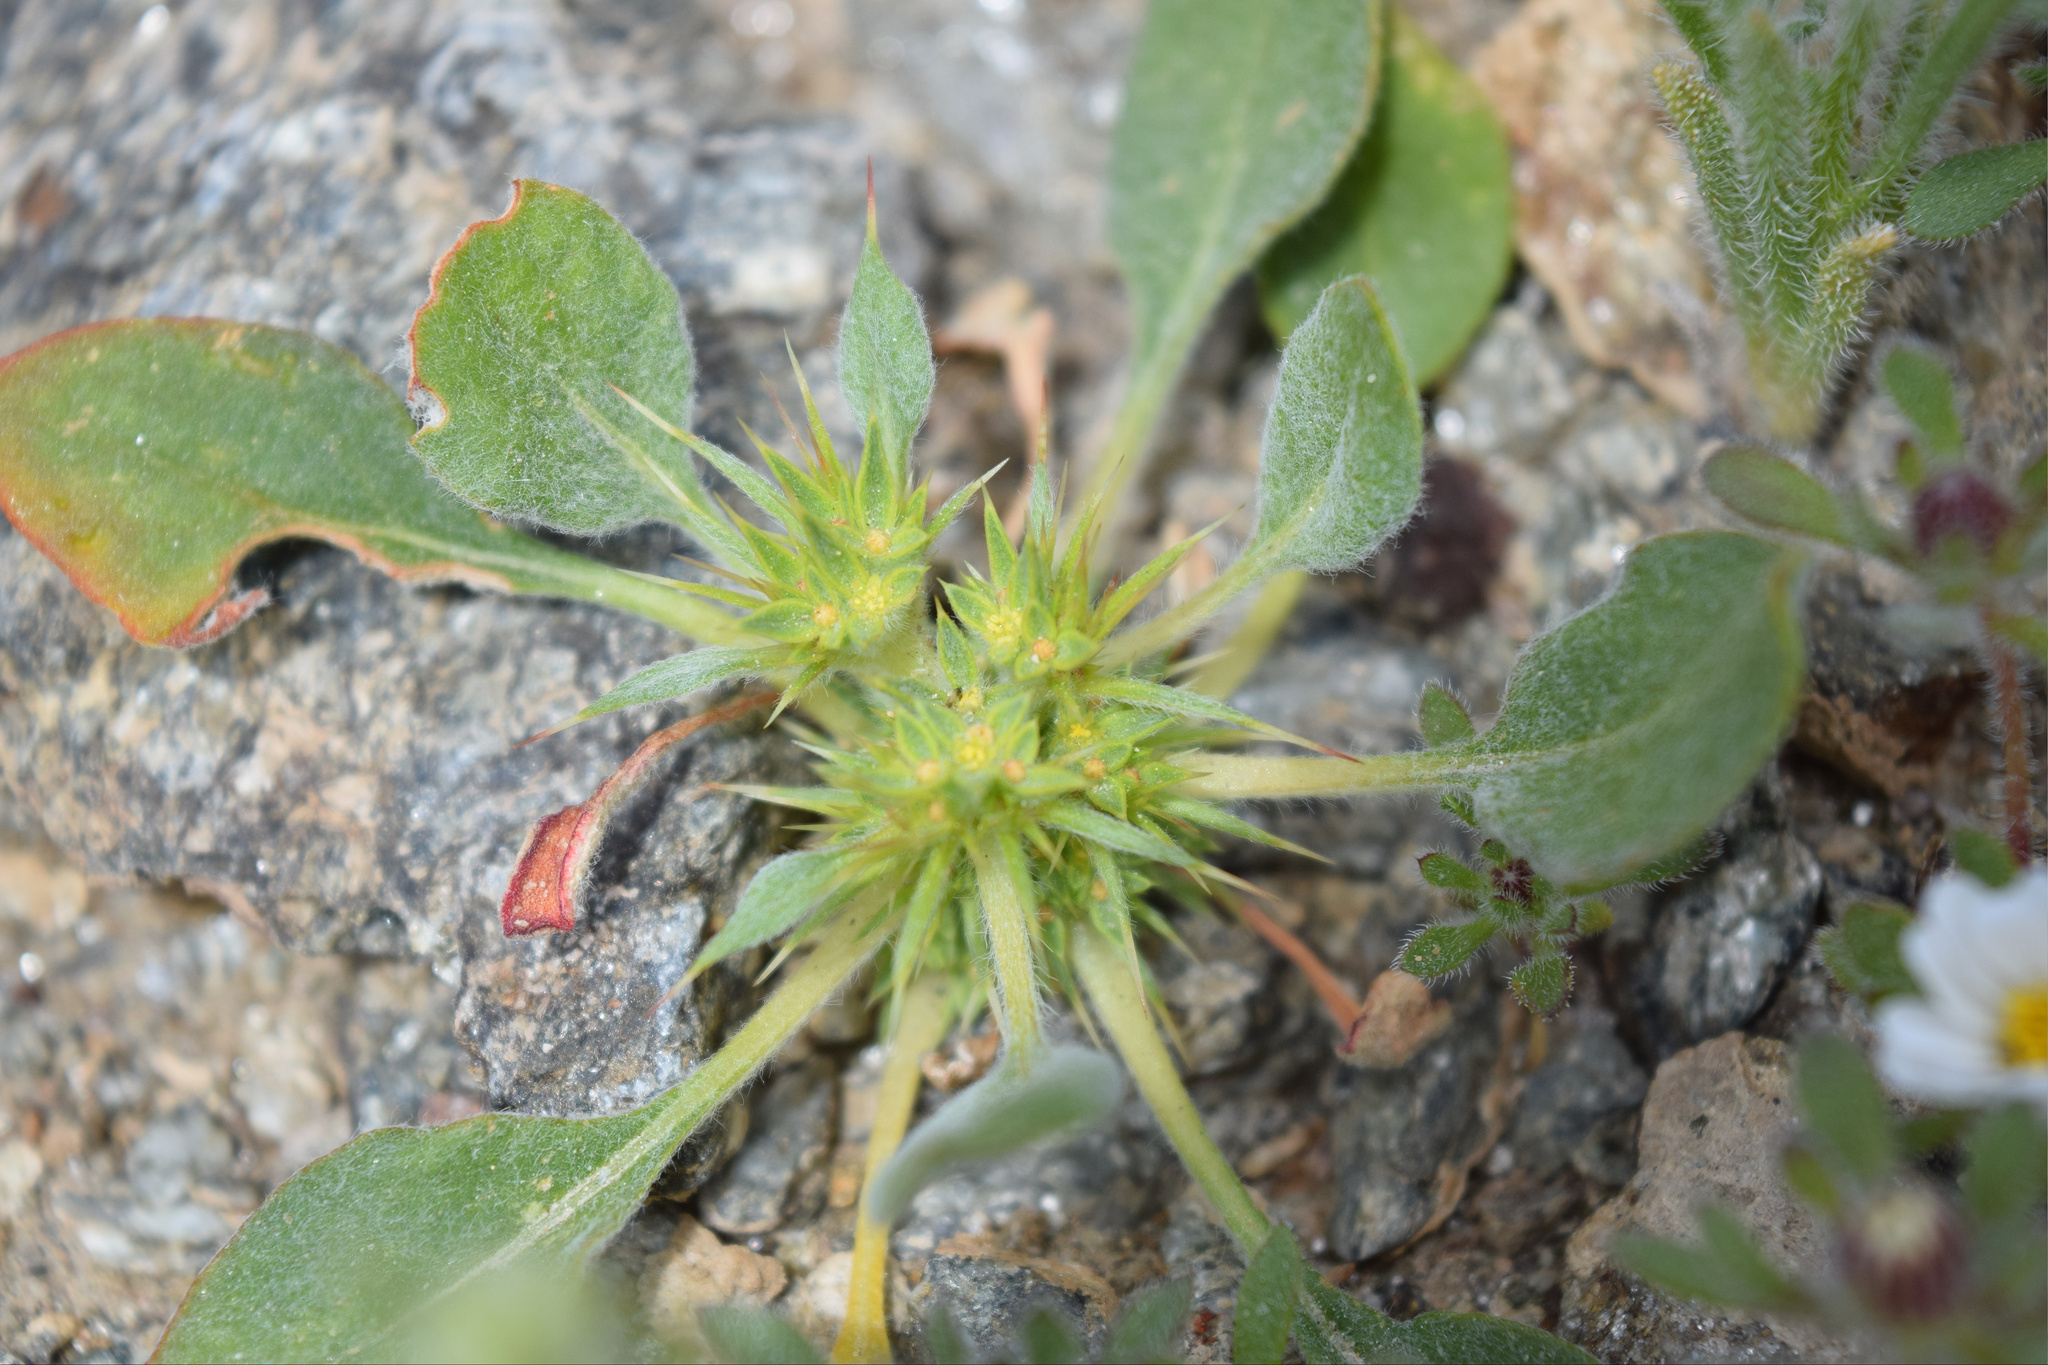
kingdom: Plantae
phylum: Tracheophyta
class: Magnoliopsida
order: Caryophyllales
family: Polygonaceae
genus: Chorizanthe
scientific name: Chorizanthe rigida
